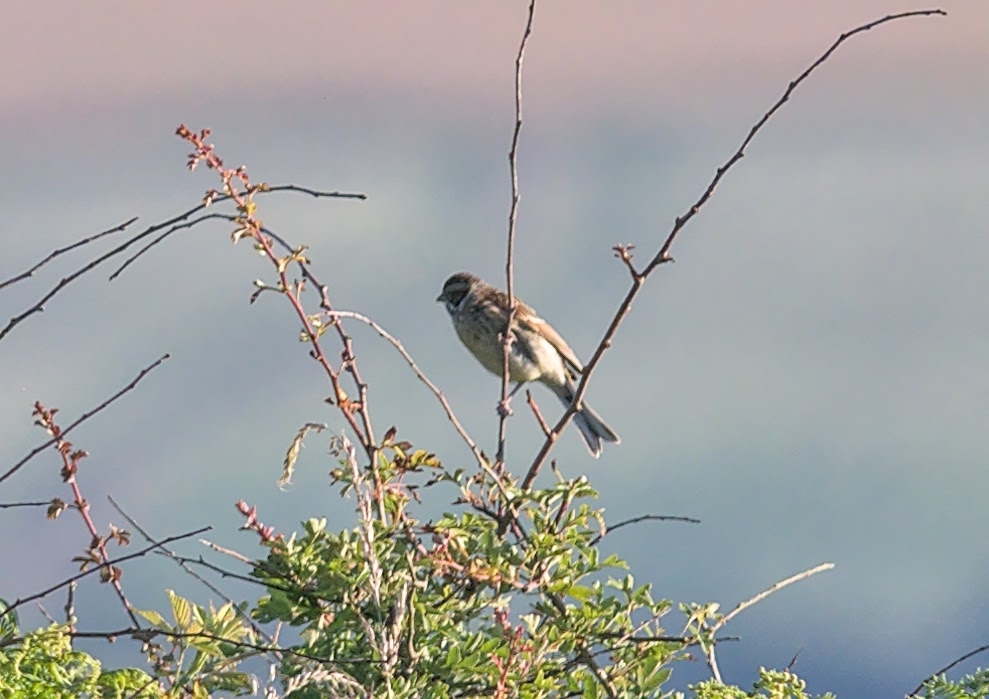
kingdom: Animalia
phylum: Chordata
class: Aves
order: Passeriformes
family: Emberizidae
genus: Emberiza
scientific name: Emberiza schoeniclus
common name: Reed bunting
